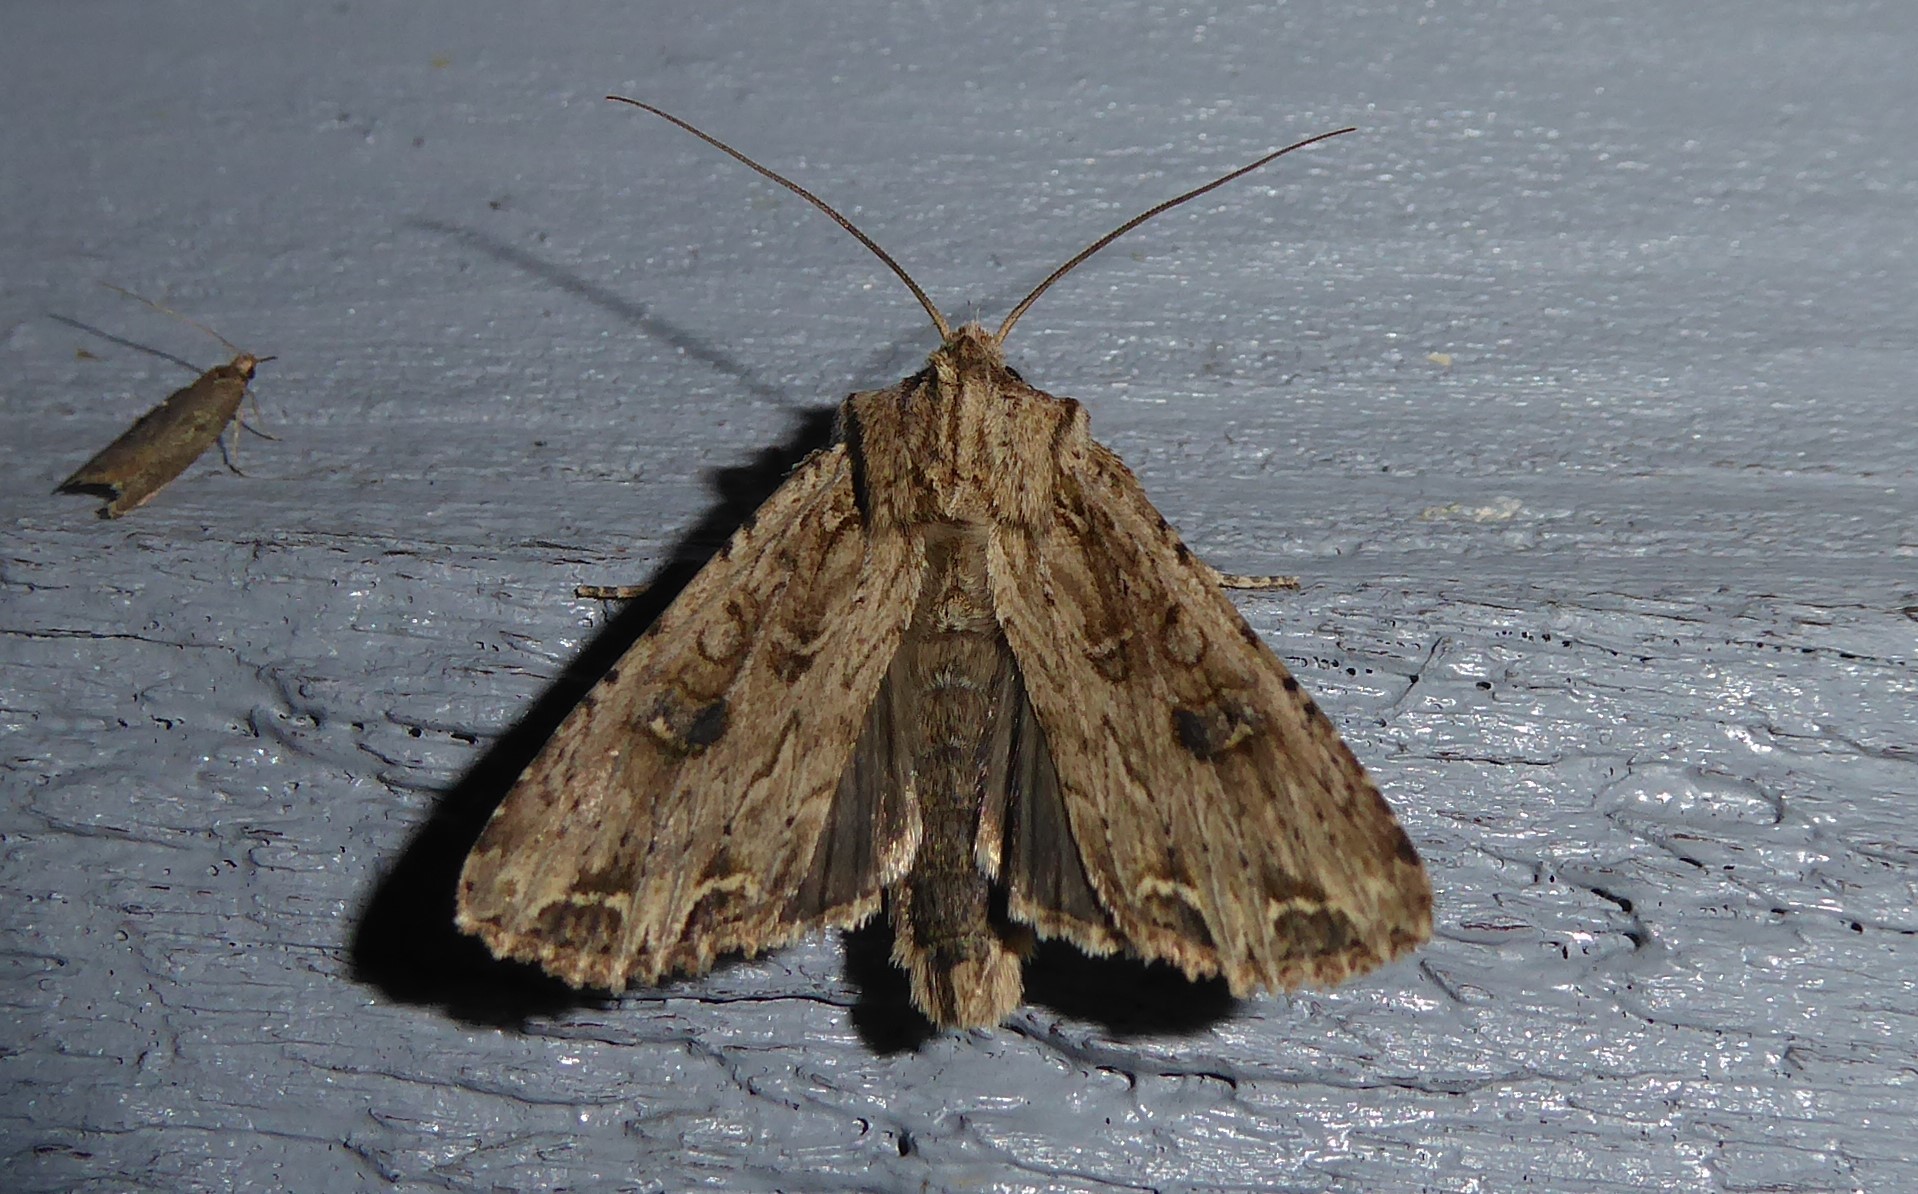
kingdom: Animalia
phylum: Arthropoda
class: Insecta
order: Lepidoptera
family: Noctuidae
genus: Ichneutica
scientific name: Ichneutica lignana
